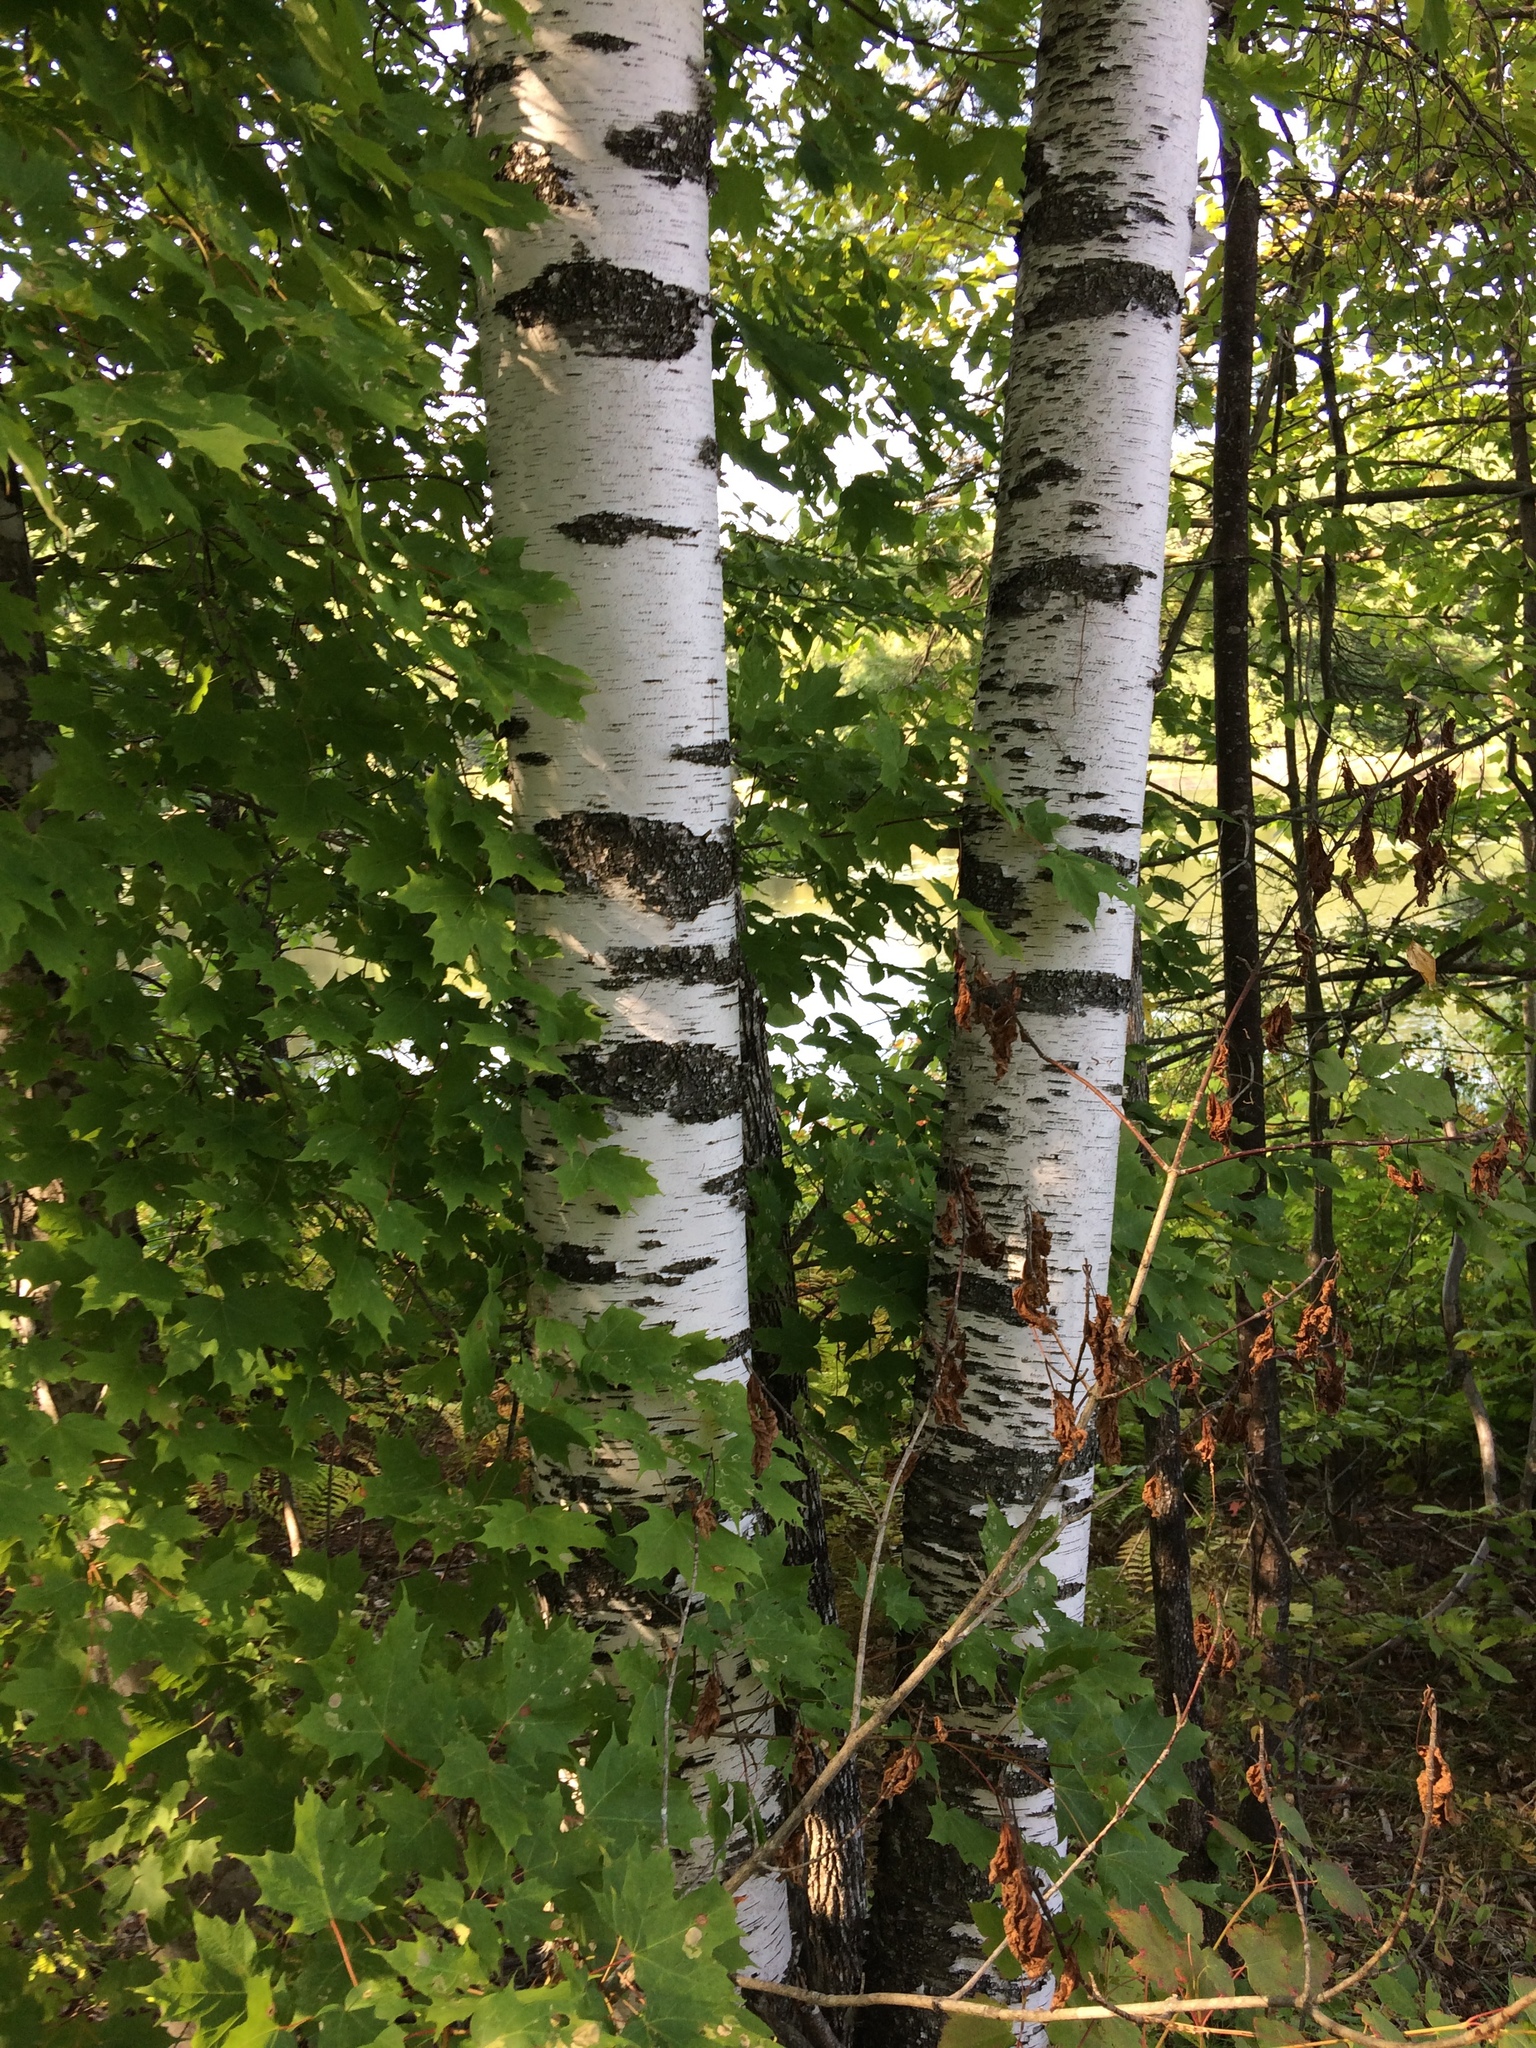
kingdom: Plantae
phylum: Tracheophyta
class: Magnoliopsida
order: Fagales
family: Betulaceae
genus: Betula
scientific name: Betula populifolia
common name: Fire birch
